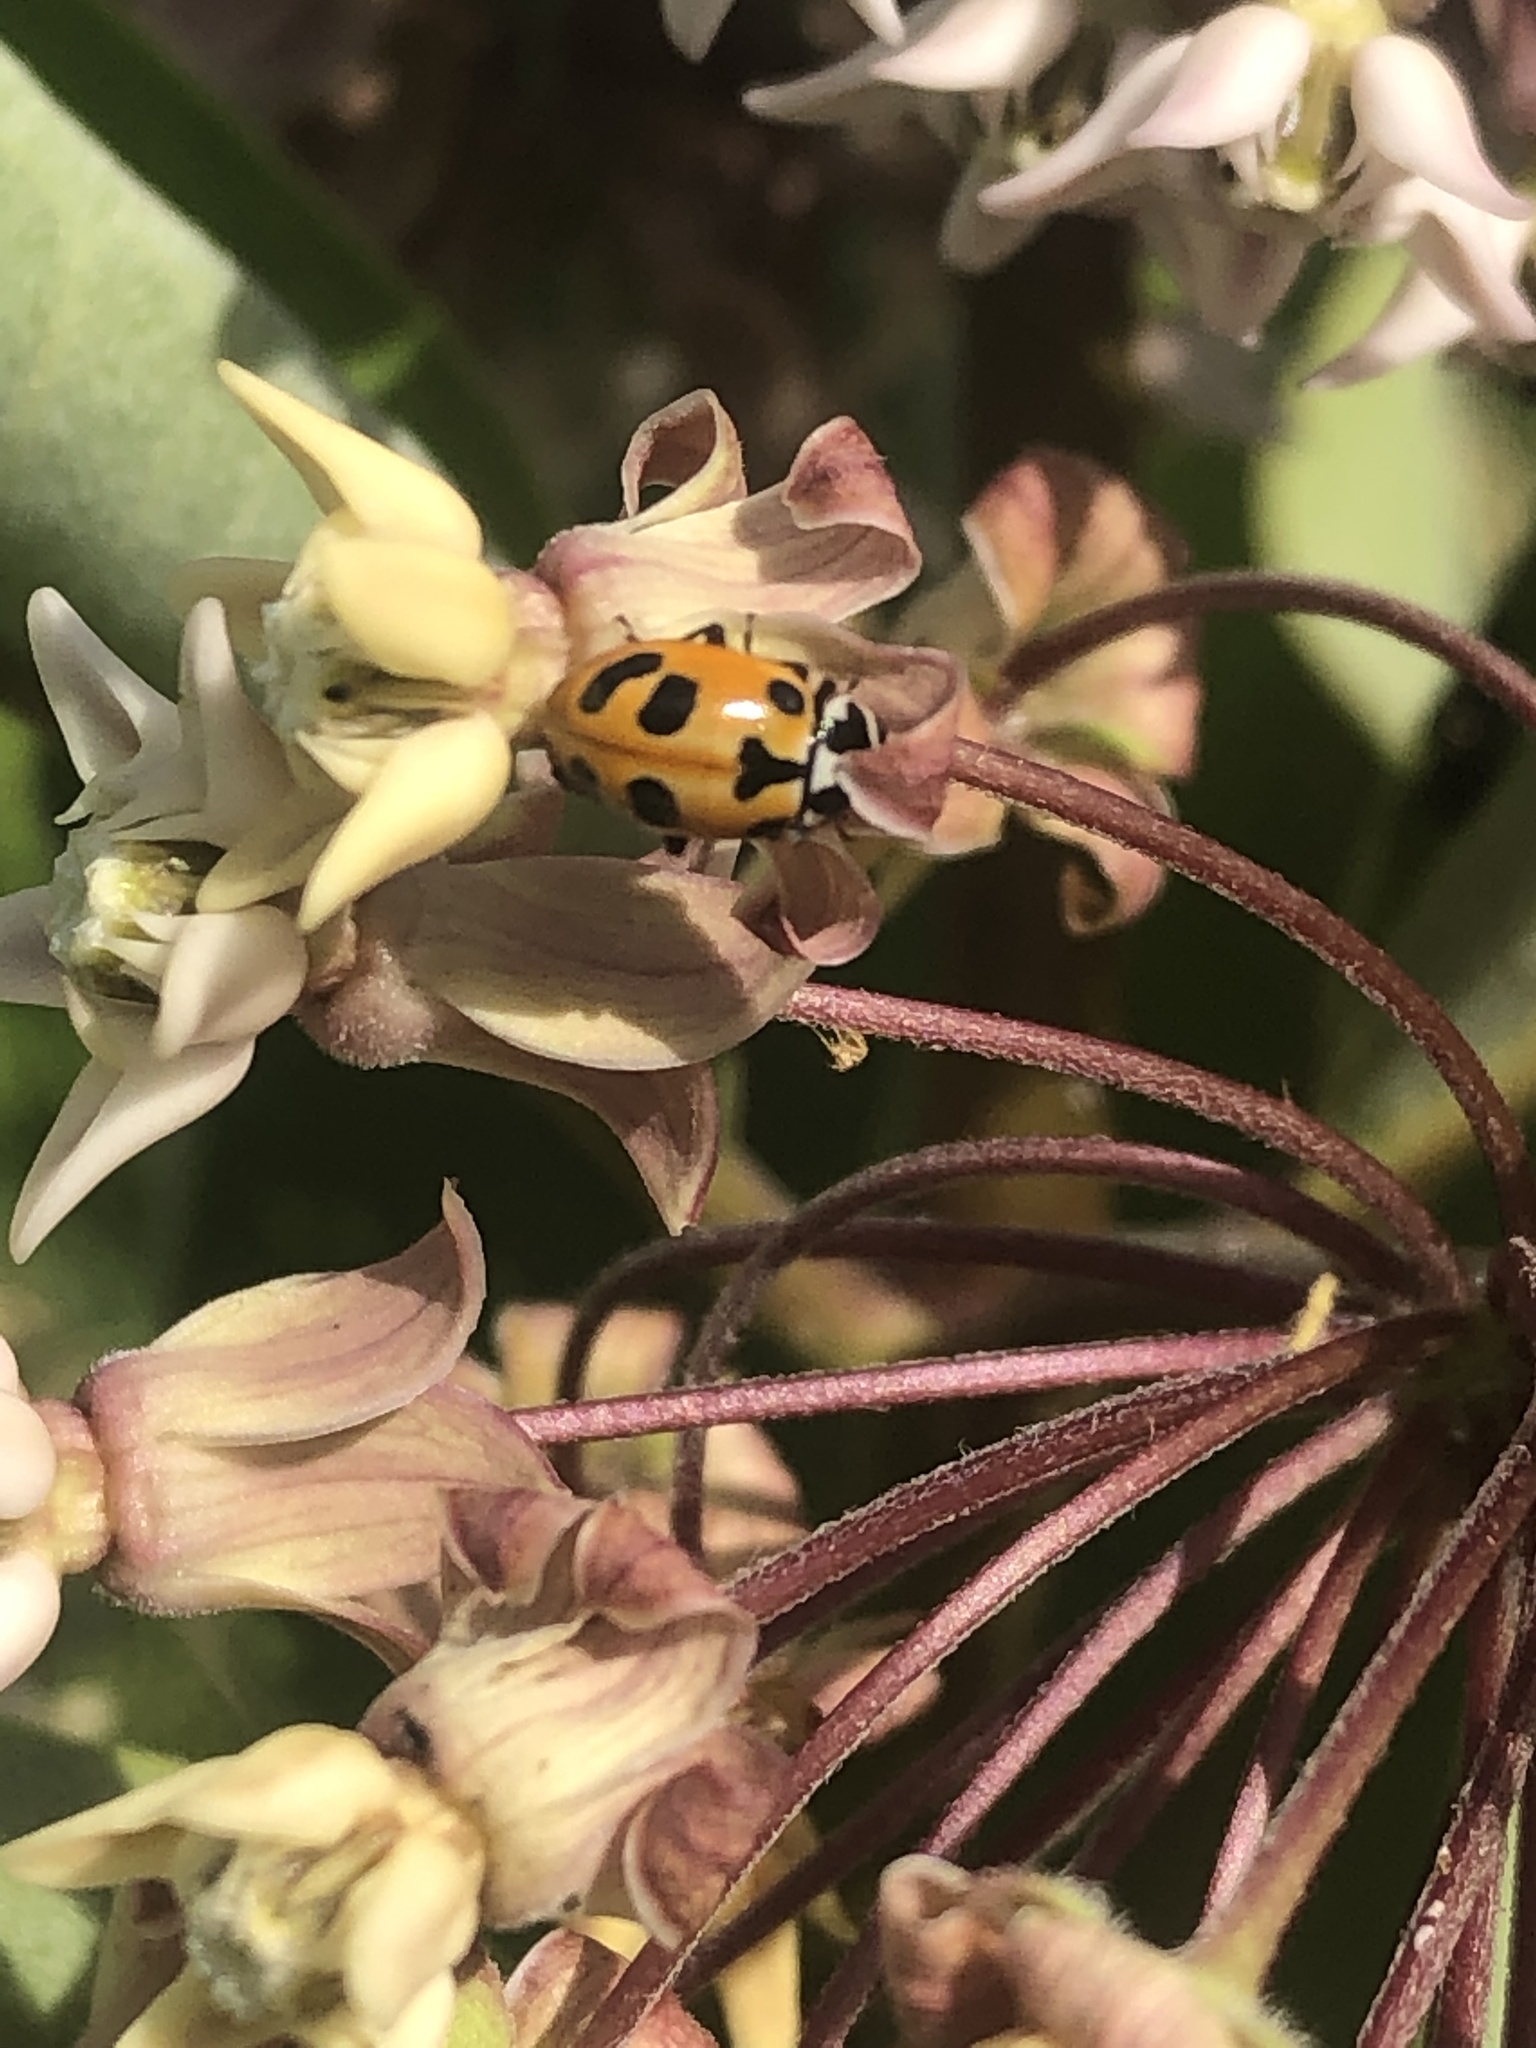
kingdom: Animalia
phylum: Arthropoda
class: Insecta
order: Coleoptera
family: Coccinellidae
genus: Hippodamia
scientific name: Hippodamia parenthesis
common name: Parenthesis lady beetle
